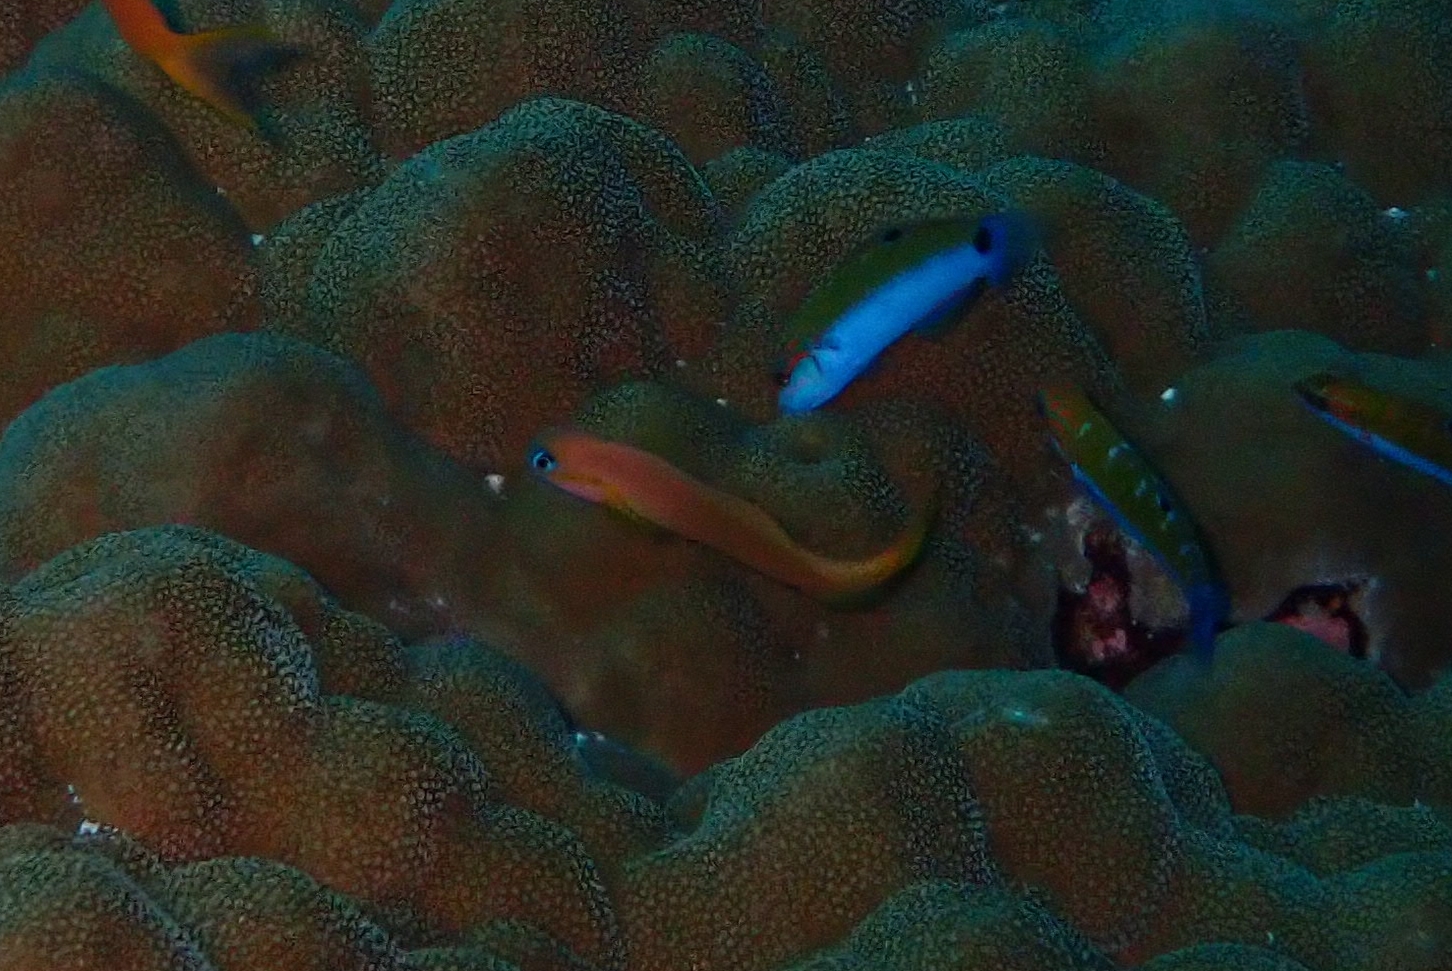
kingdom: Animalia
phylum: Chordata
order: Perciformes
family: Blenniidae
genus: Ecsenius
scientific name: Ecsenius midas
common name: Golden blenny
